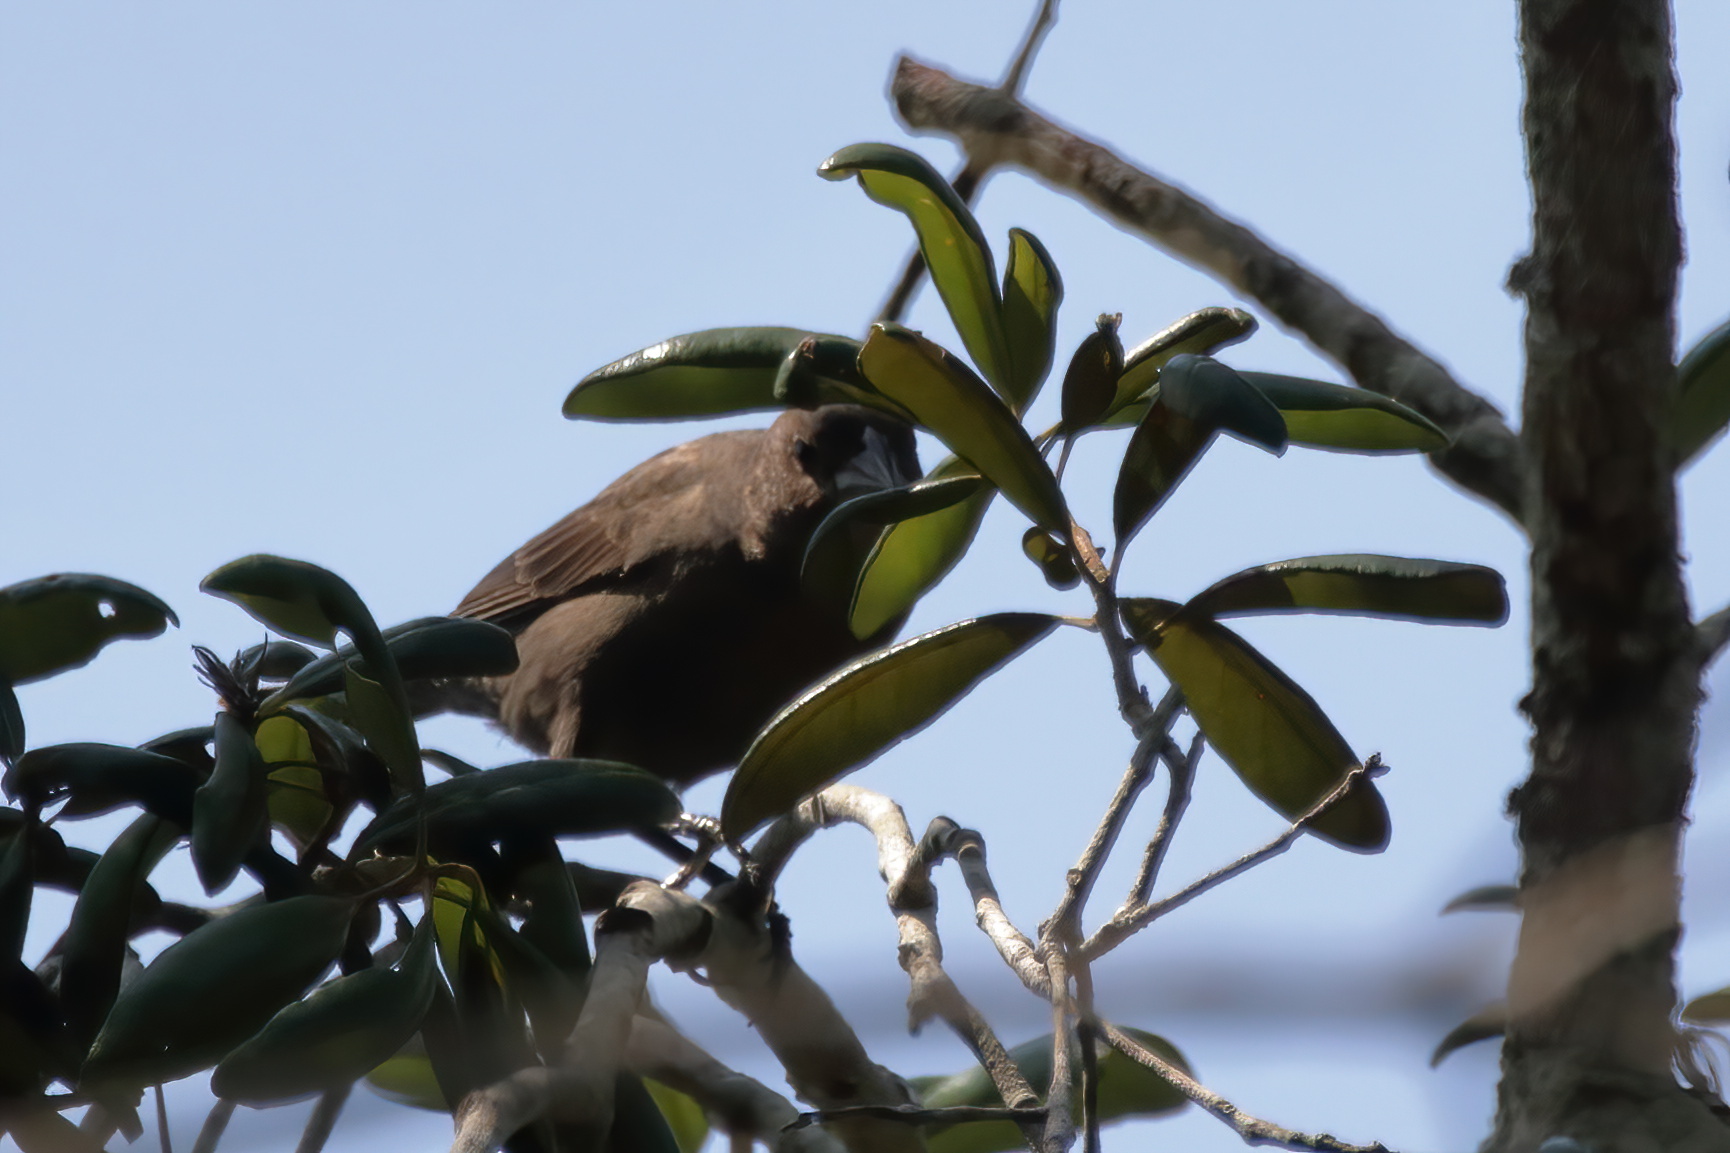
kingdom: Animalia
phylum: Chordata
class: Aves
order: Passeriformes
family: Icteridae
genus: Molothrus
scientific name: Molothrus ater
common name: Brown-headed cowbird
